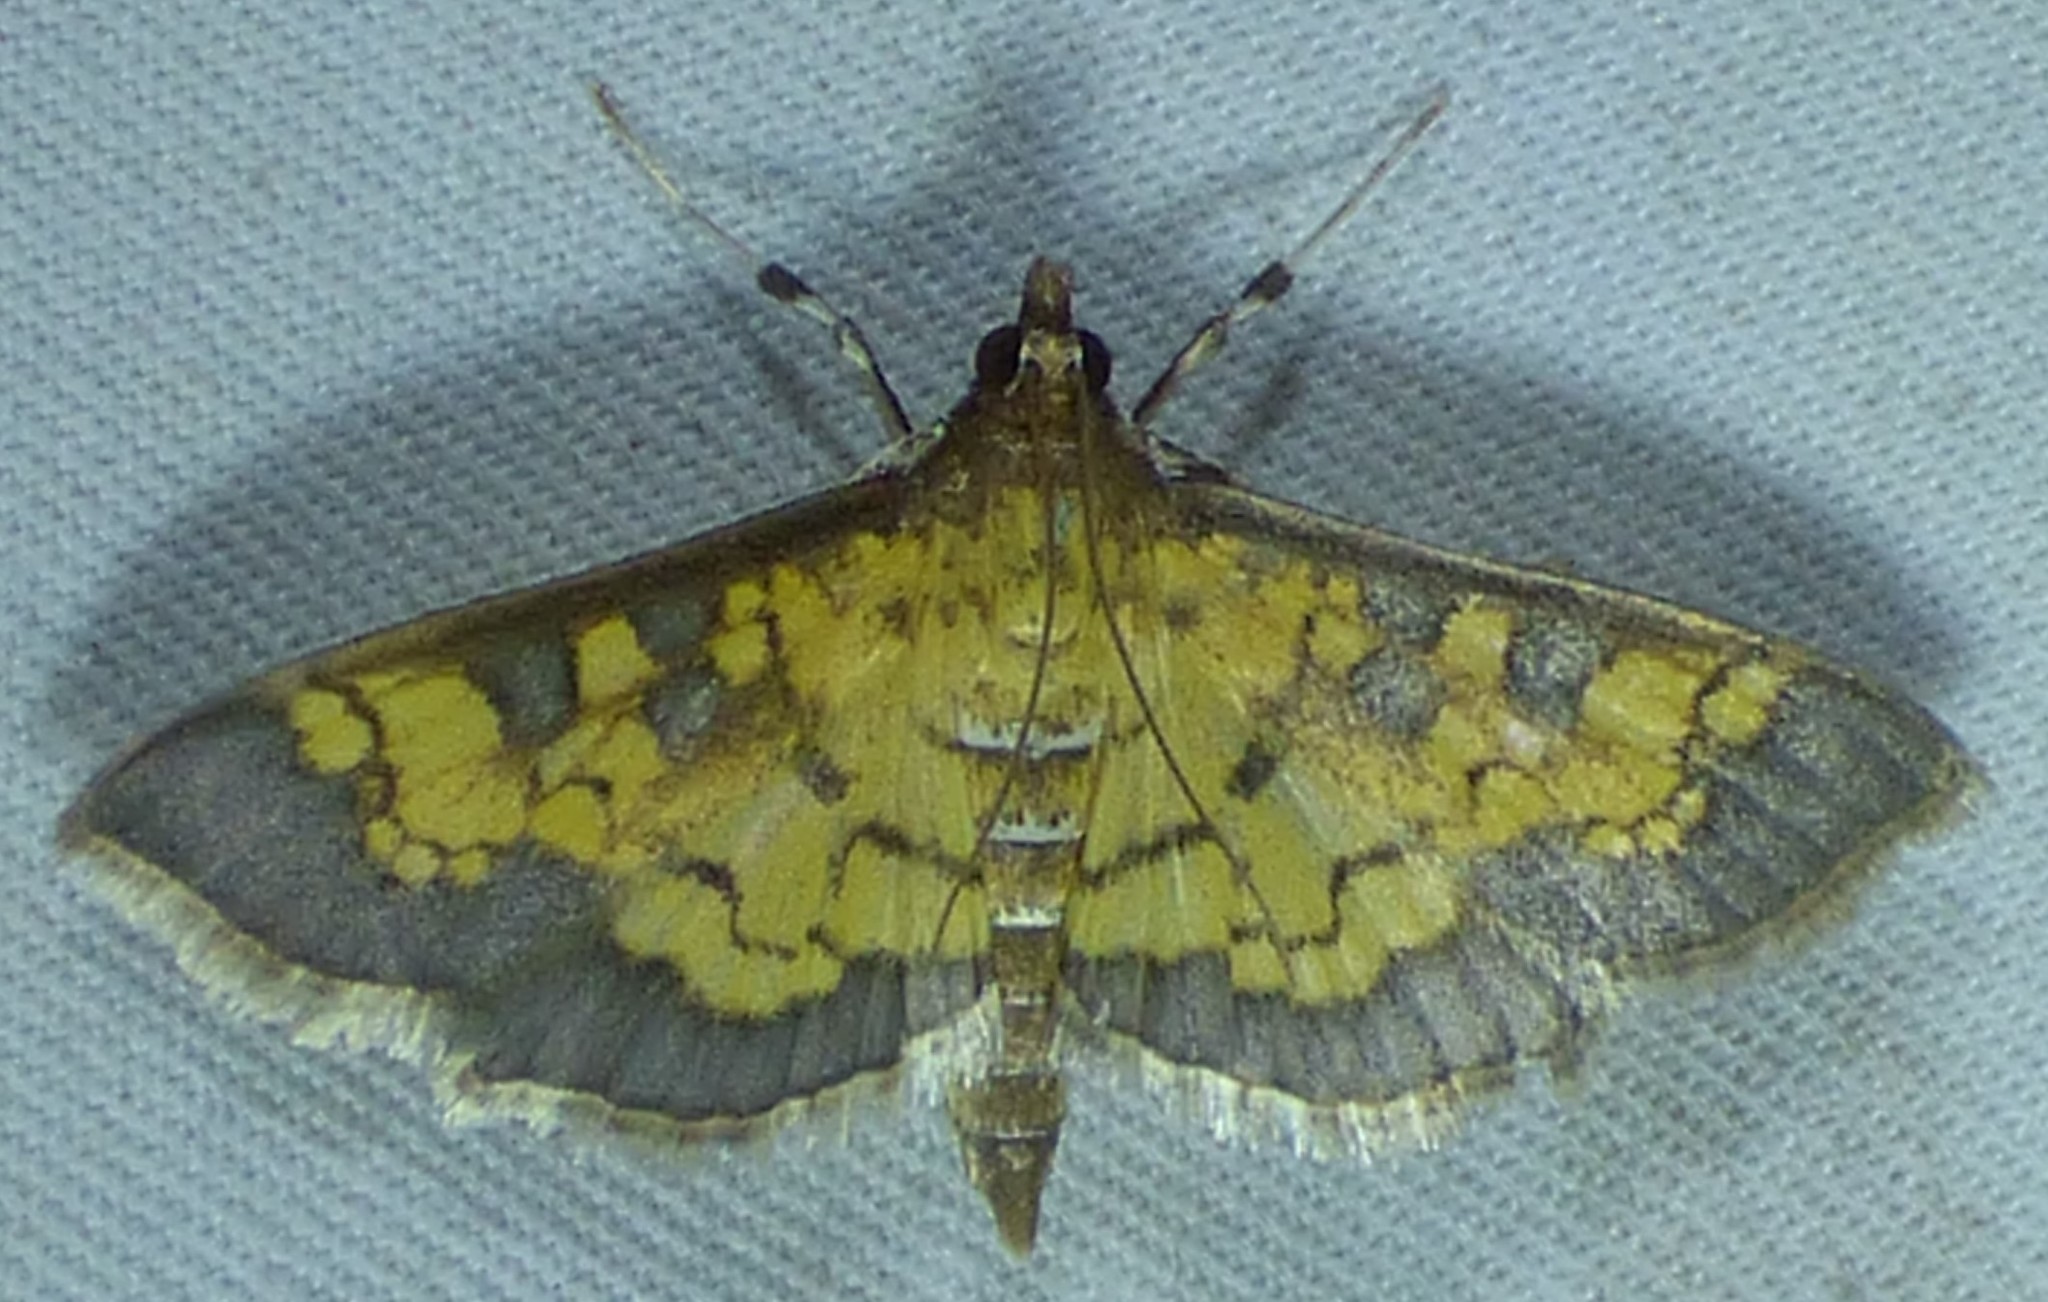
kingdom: Animalia
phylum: Arthropoda
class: Insecta
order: Lepidoptera
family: Crambidae
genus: Epipagis
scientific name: Epipagis adipaloides
